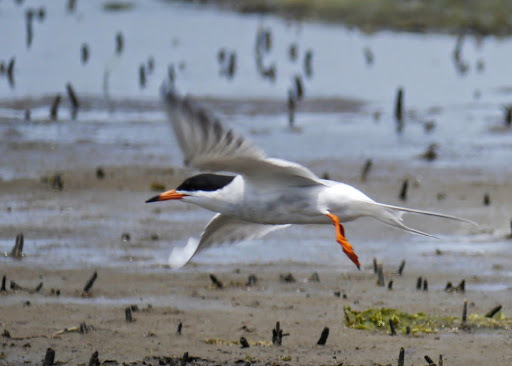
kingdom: Animalia
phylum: Chordata
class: Aves
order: Charadriiformes
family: Laridae
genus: Sterna
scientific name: Sterna forsteri
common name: Forster's tern
